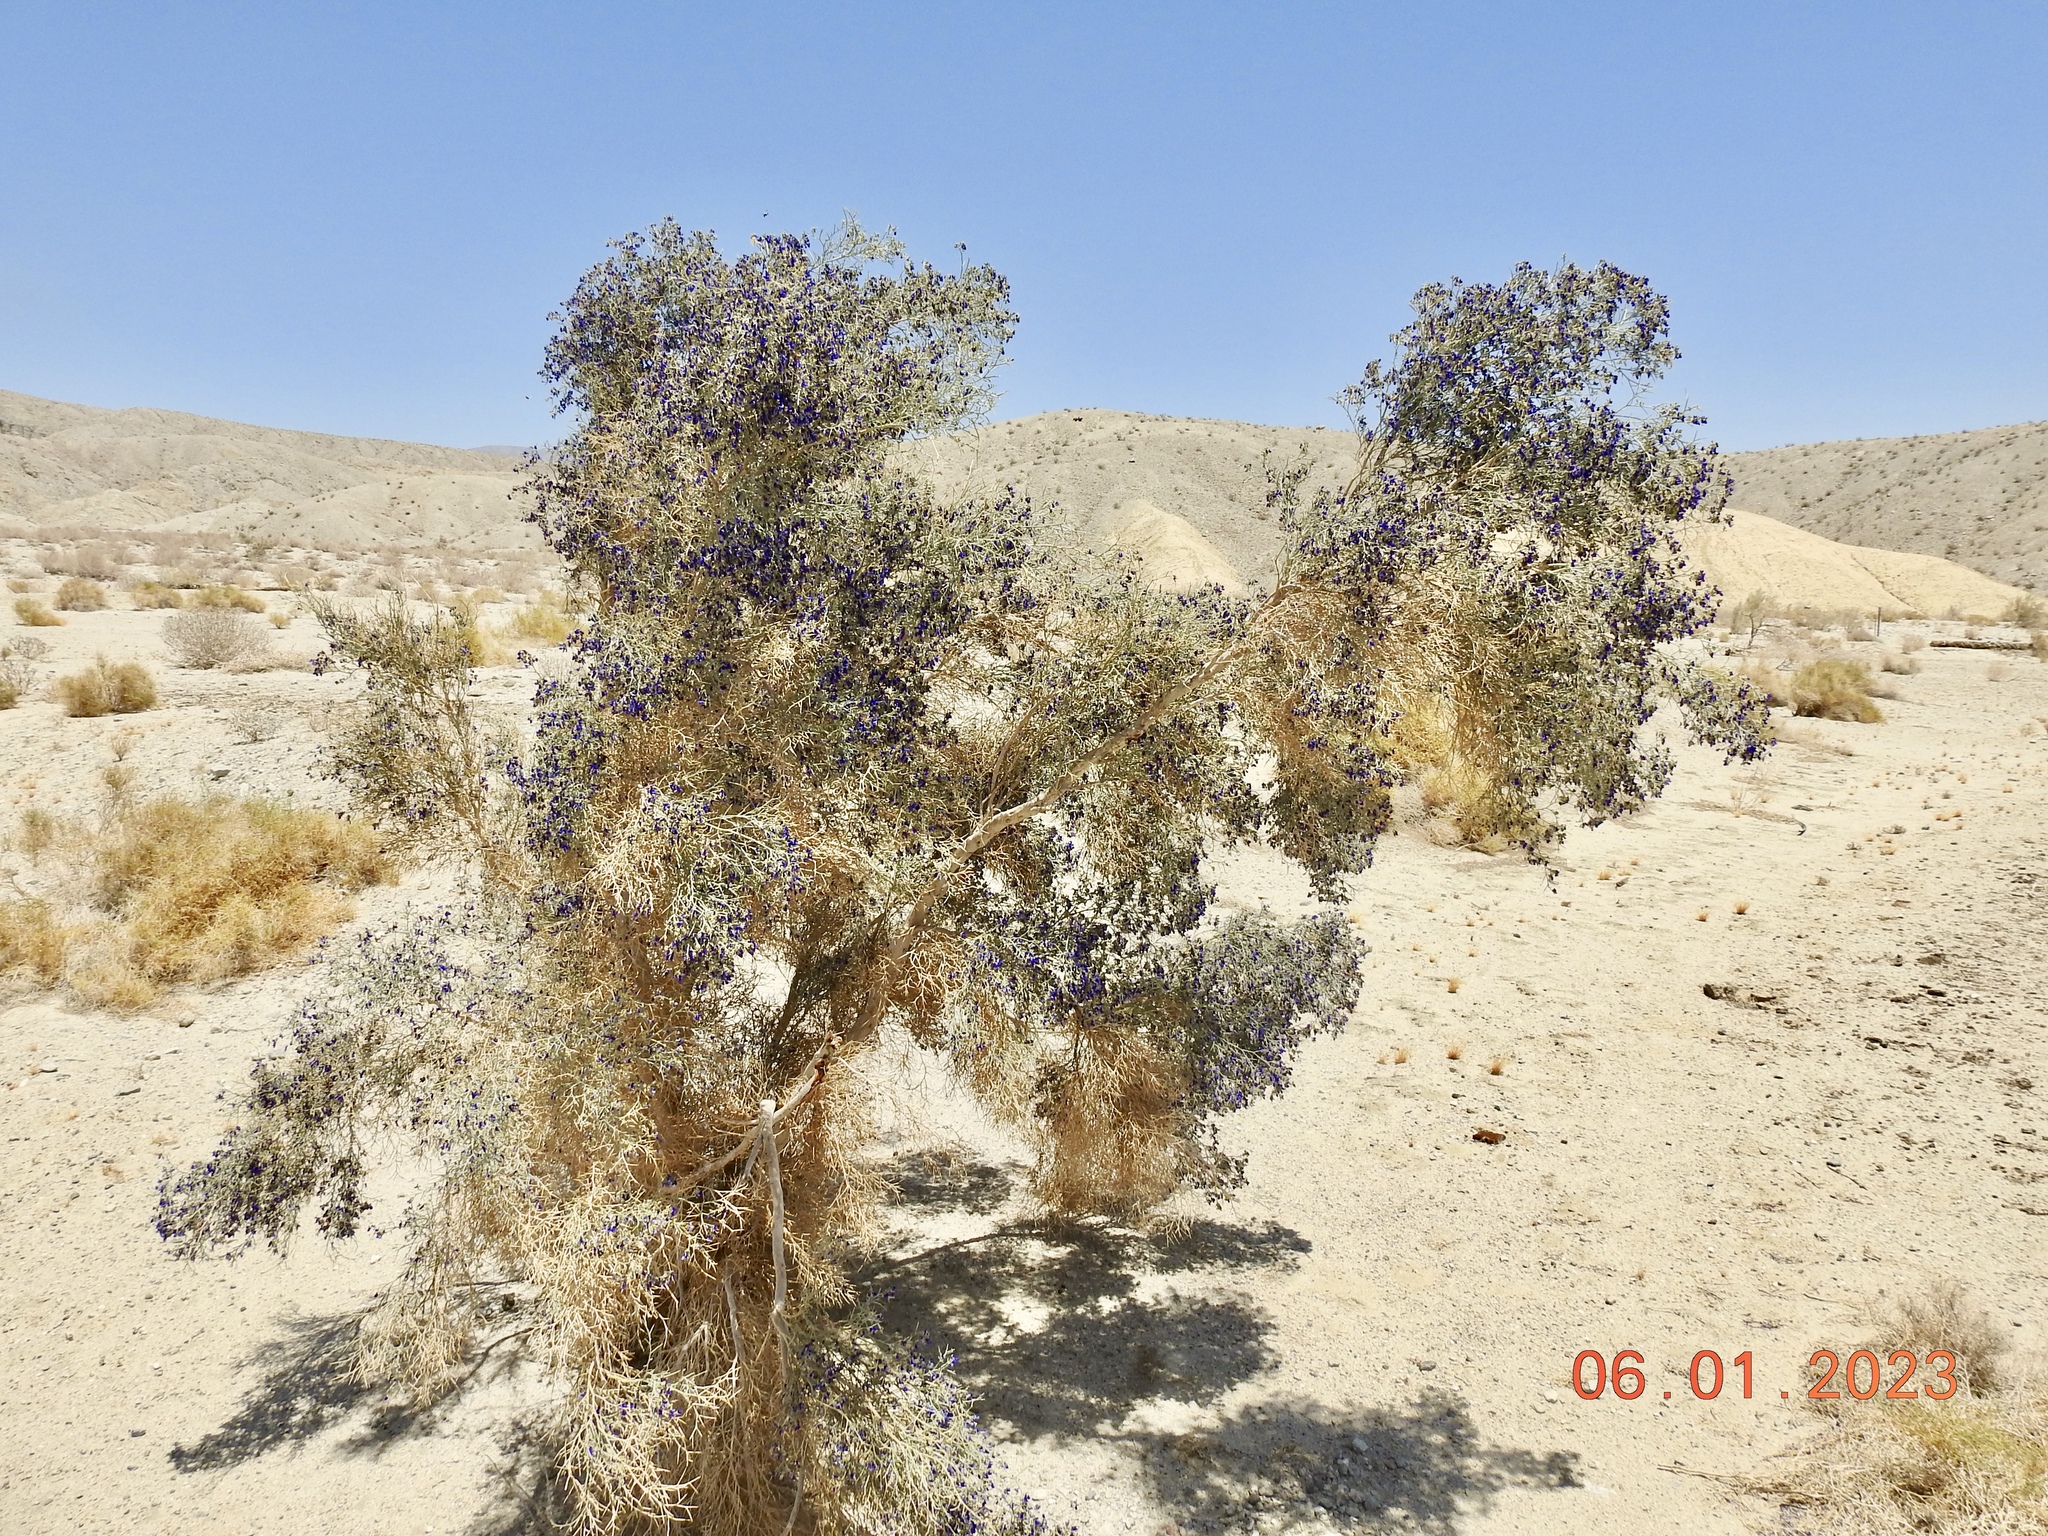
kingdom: Plantae
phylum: Tracheophyta
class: Magnoliopsida
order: Fabales
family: Fabaceae
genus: Psorothamnus
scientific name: Psorothamnus spinosus
